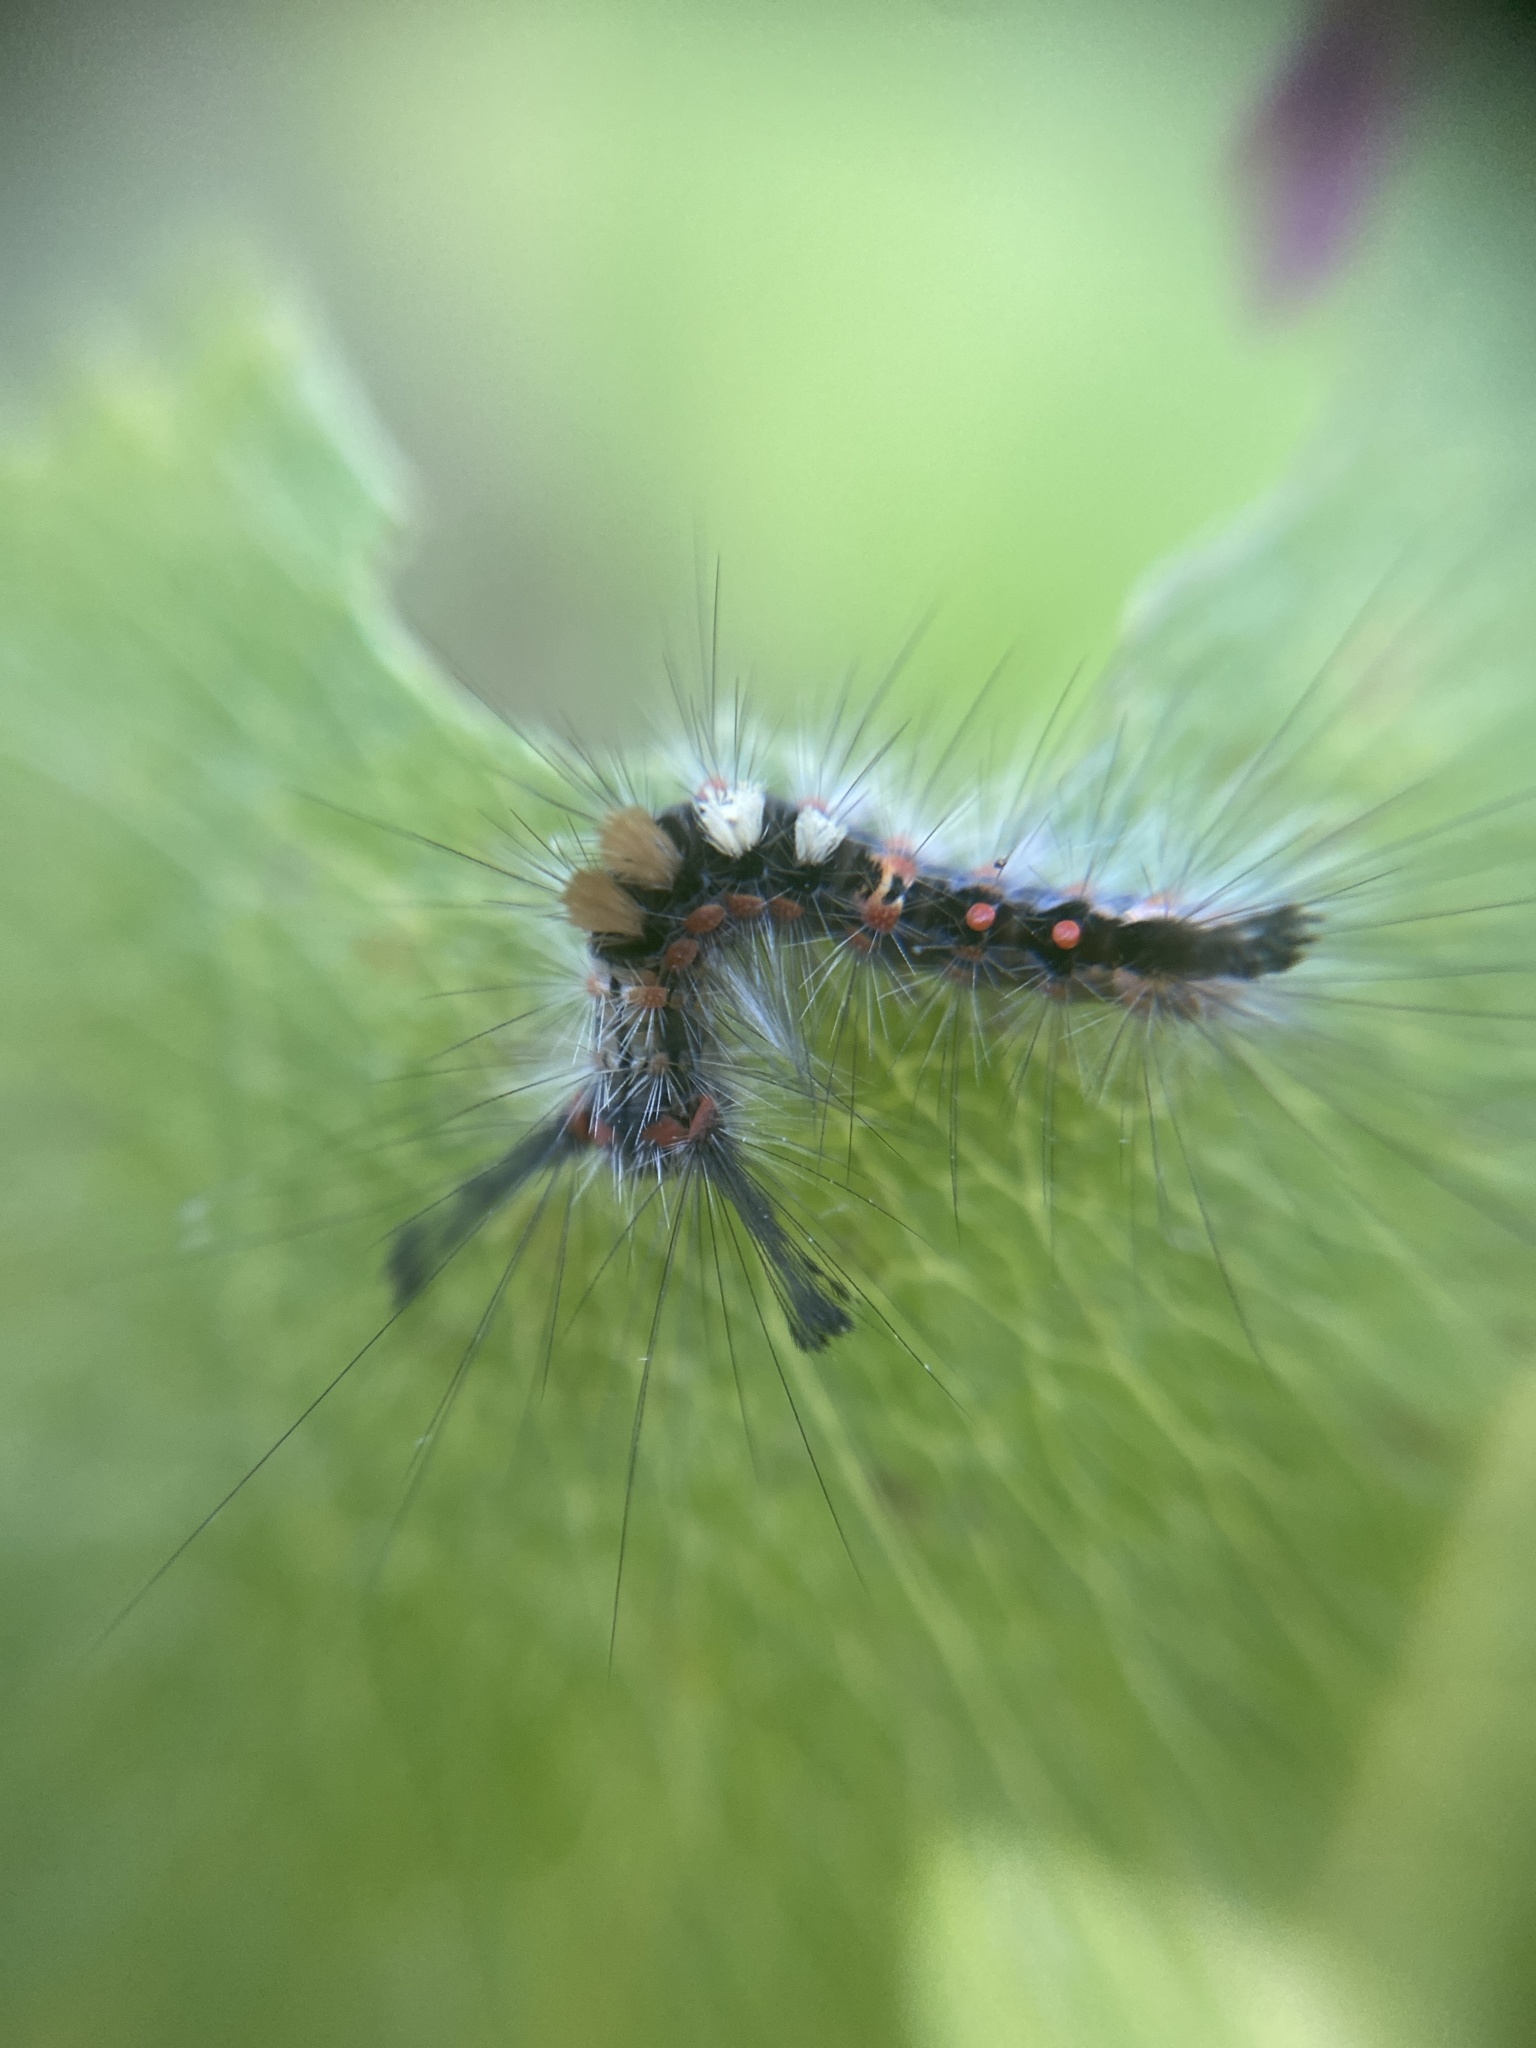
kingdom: Animalia
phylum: Arthropoda
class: Insecta
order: Lepidoptera
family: Erebidae
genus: Orgyia
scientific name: Orgyia antiqua
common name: Vapourer
